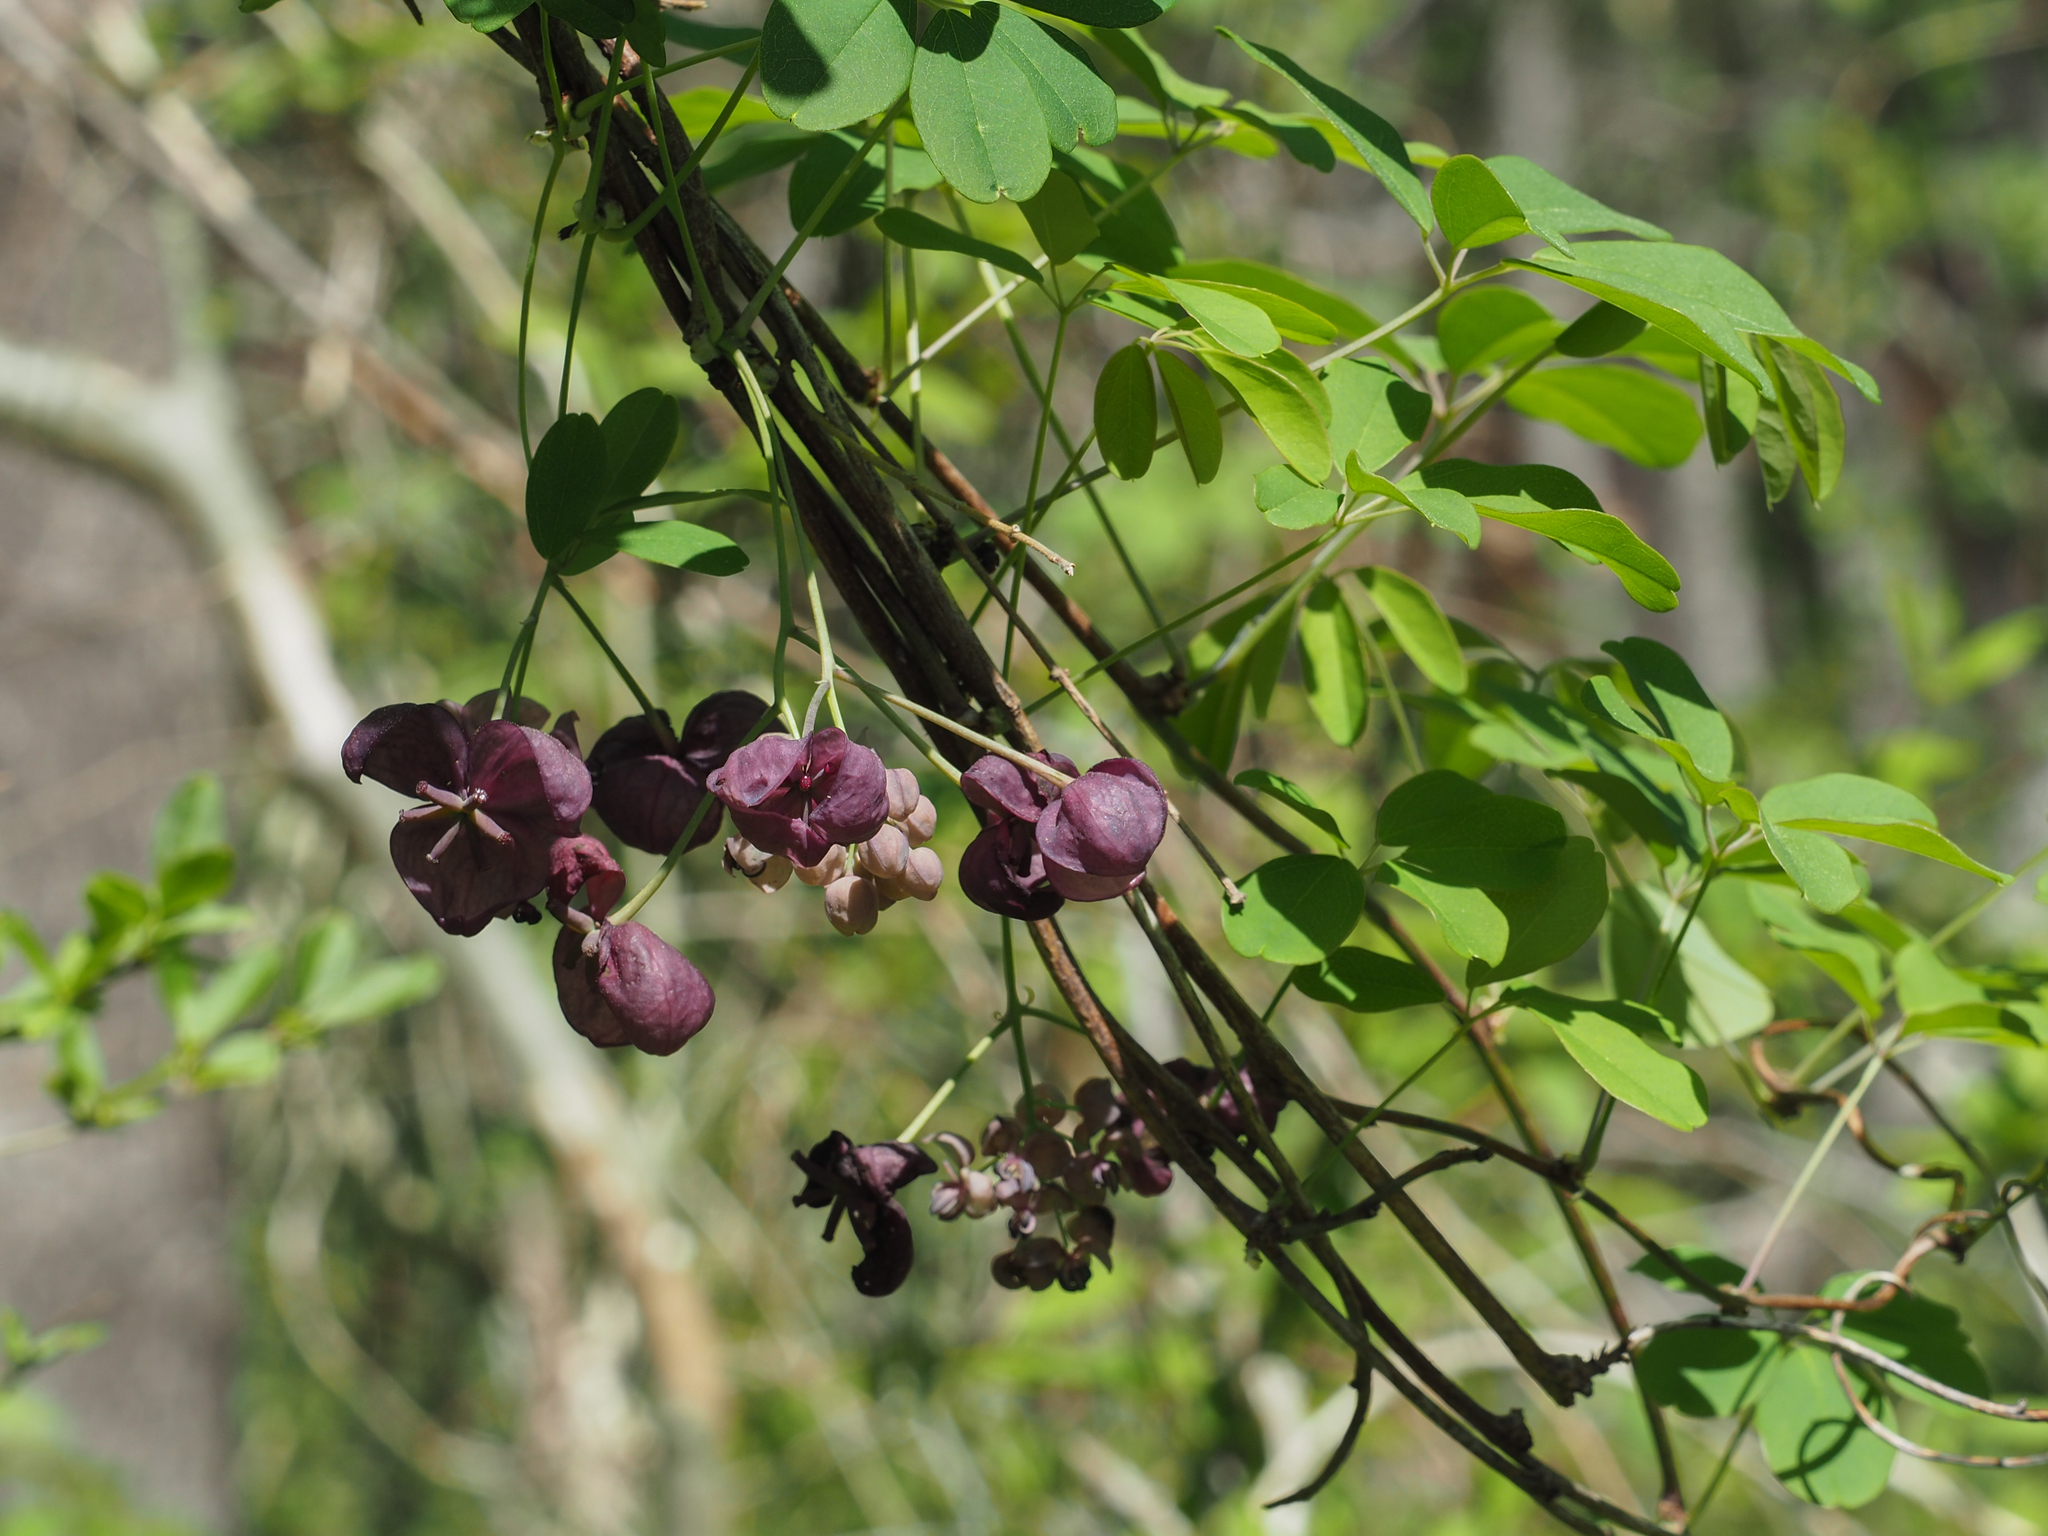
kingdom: Plantae
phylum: Tracheophyta
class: Magnoliopsida
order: Ranunculales
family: Lardizabalaceae
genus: Akebia
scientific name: Akebia quinata
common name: Five-leaf akebia
